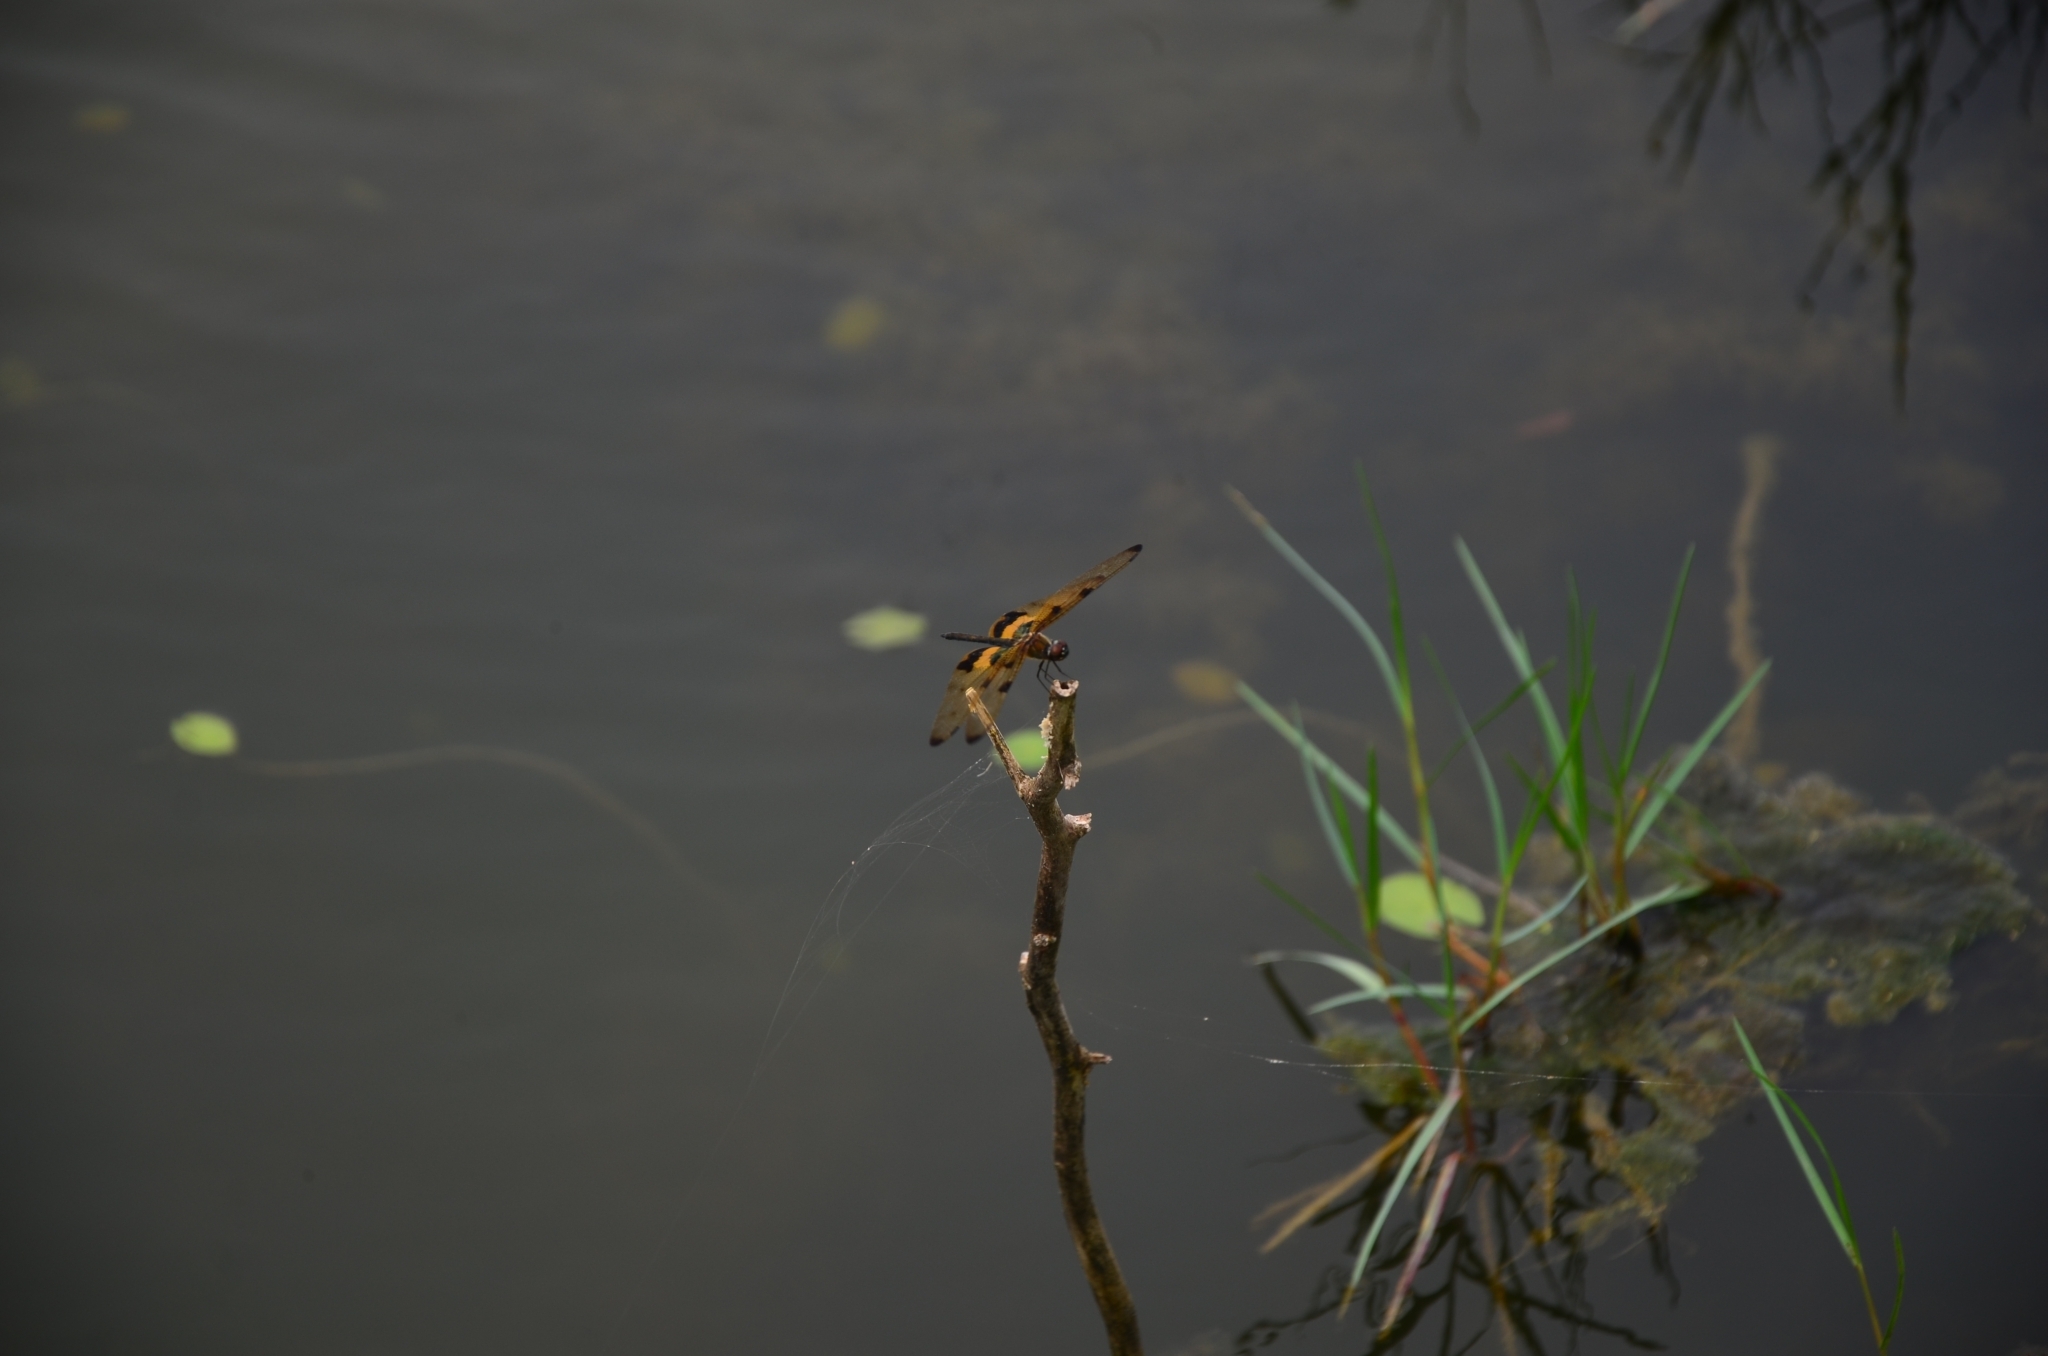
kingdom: Animalia
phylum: Arthropoda
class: Insecta
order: Odonata
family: Libellulidae
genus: Rhyothemis
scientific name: Rhyothemis variegata
